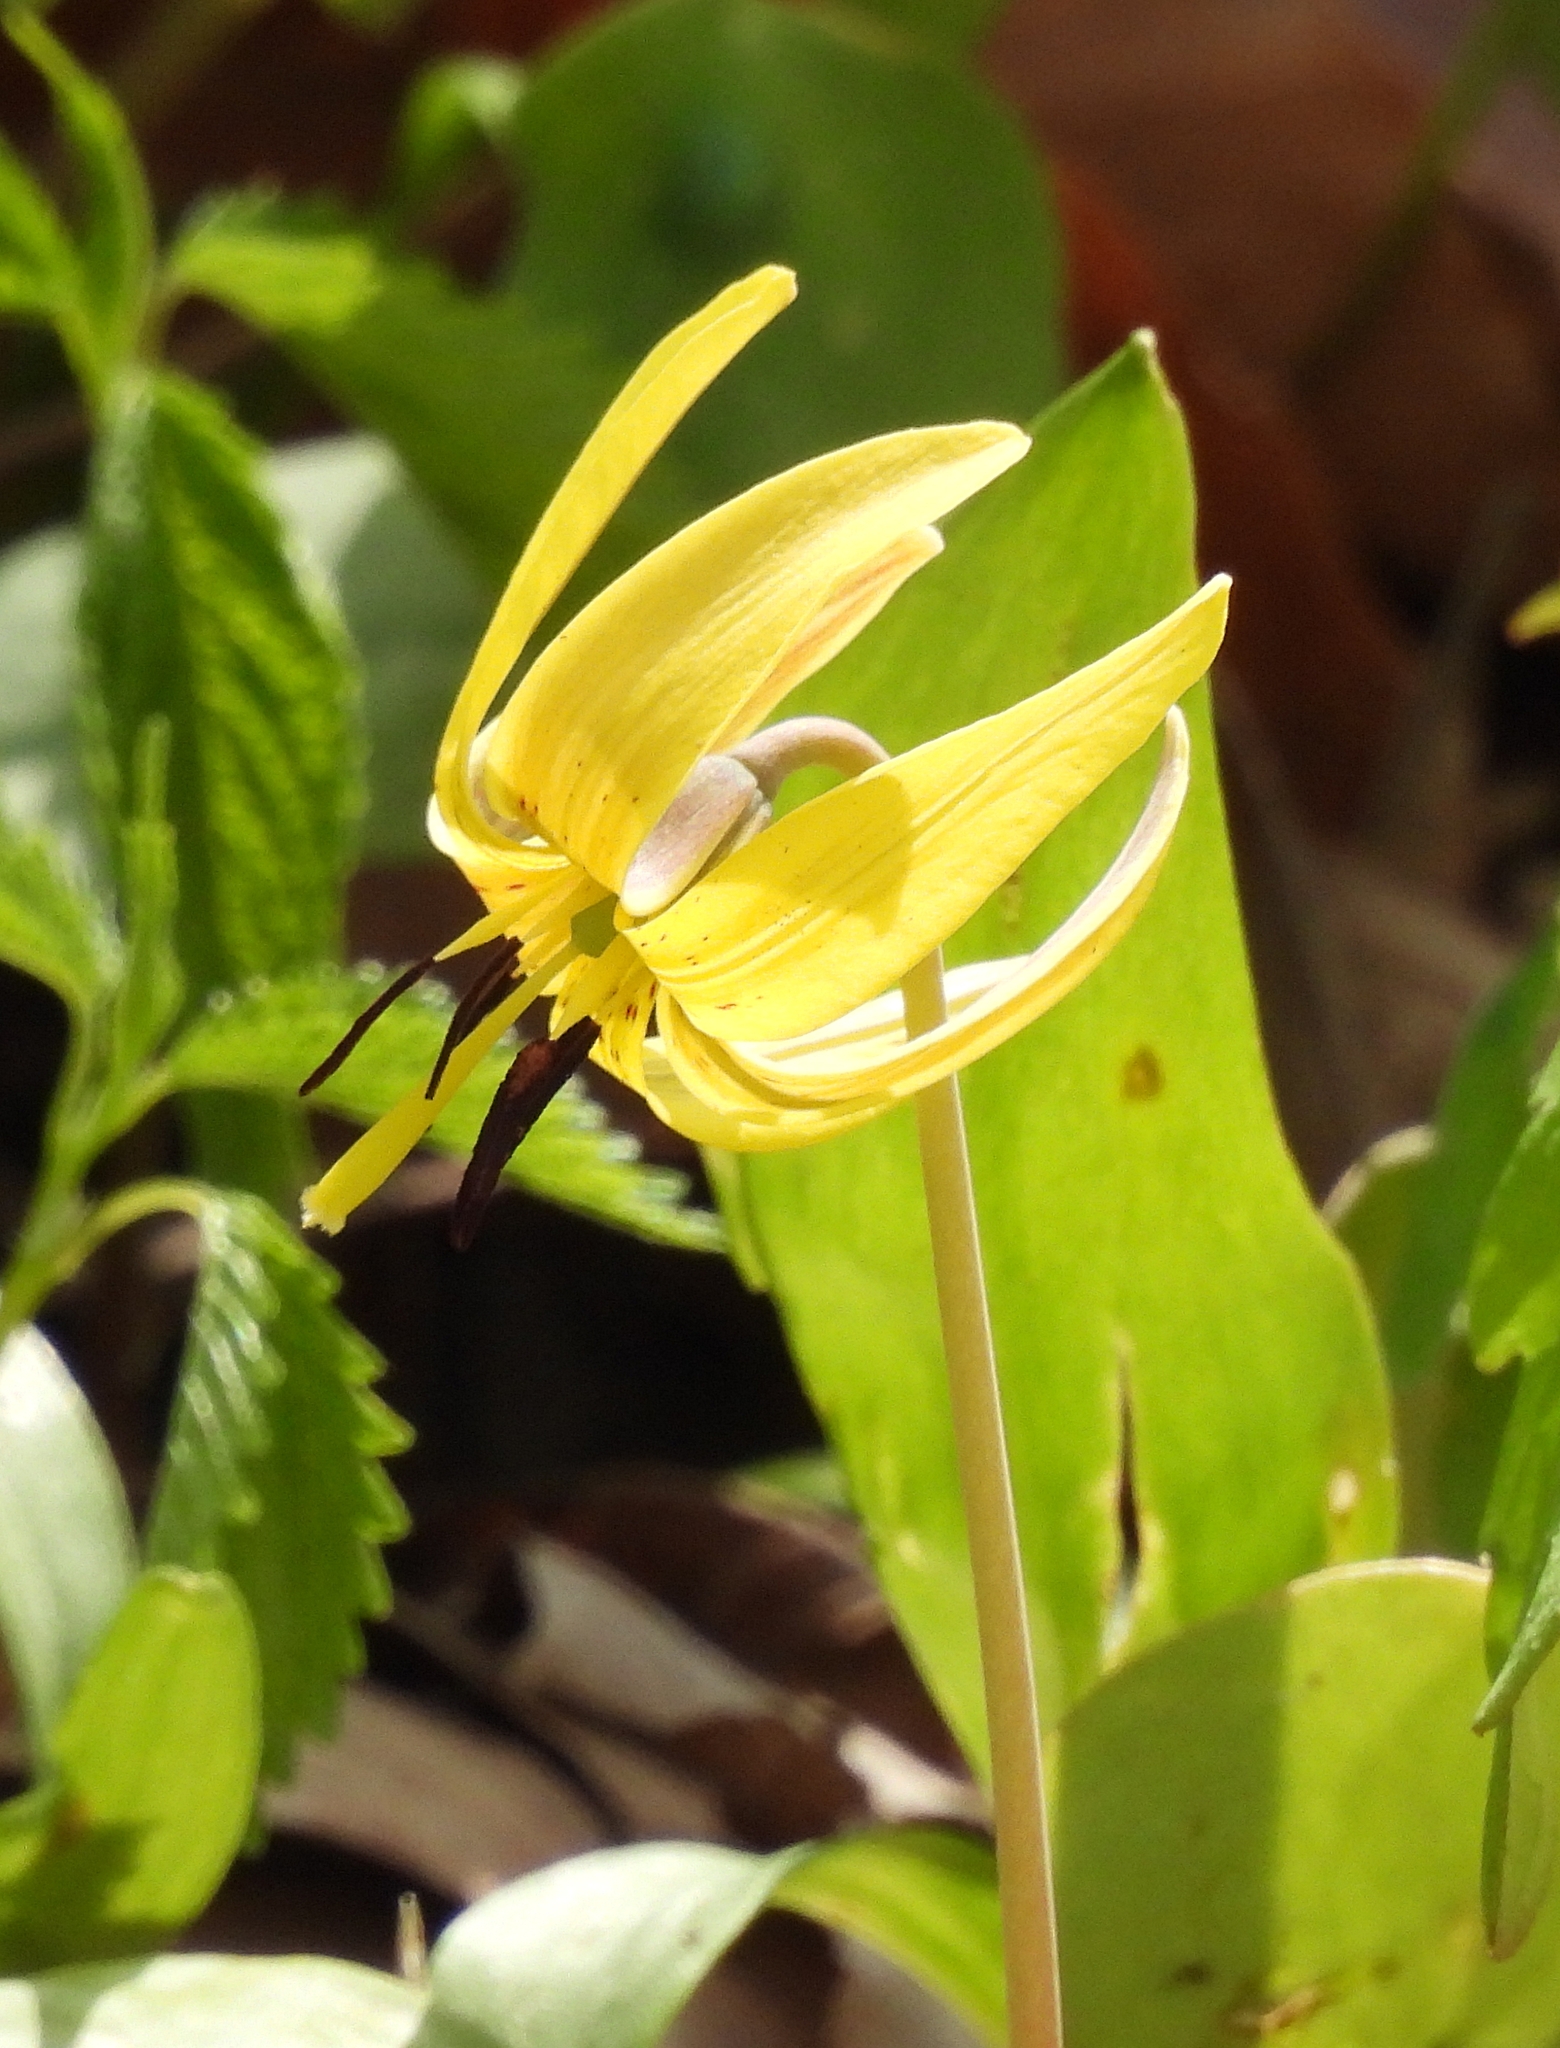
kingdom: Plantae
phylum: Tracheophyta
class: Liliopsida
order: Liliales
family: Liliaceae
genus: Erythronium
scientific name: Erythronium americanum
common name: Yellow adder's-tongue
